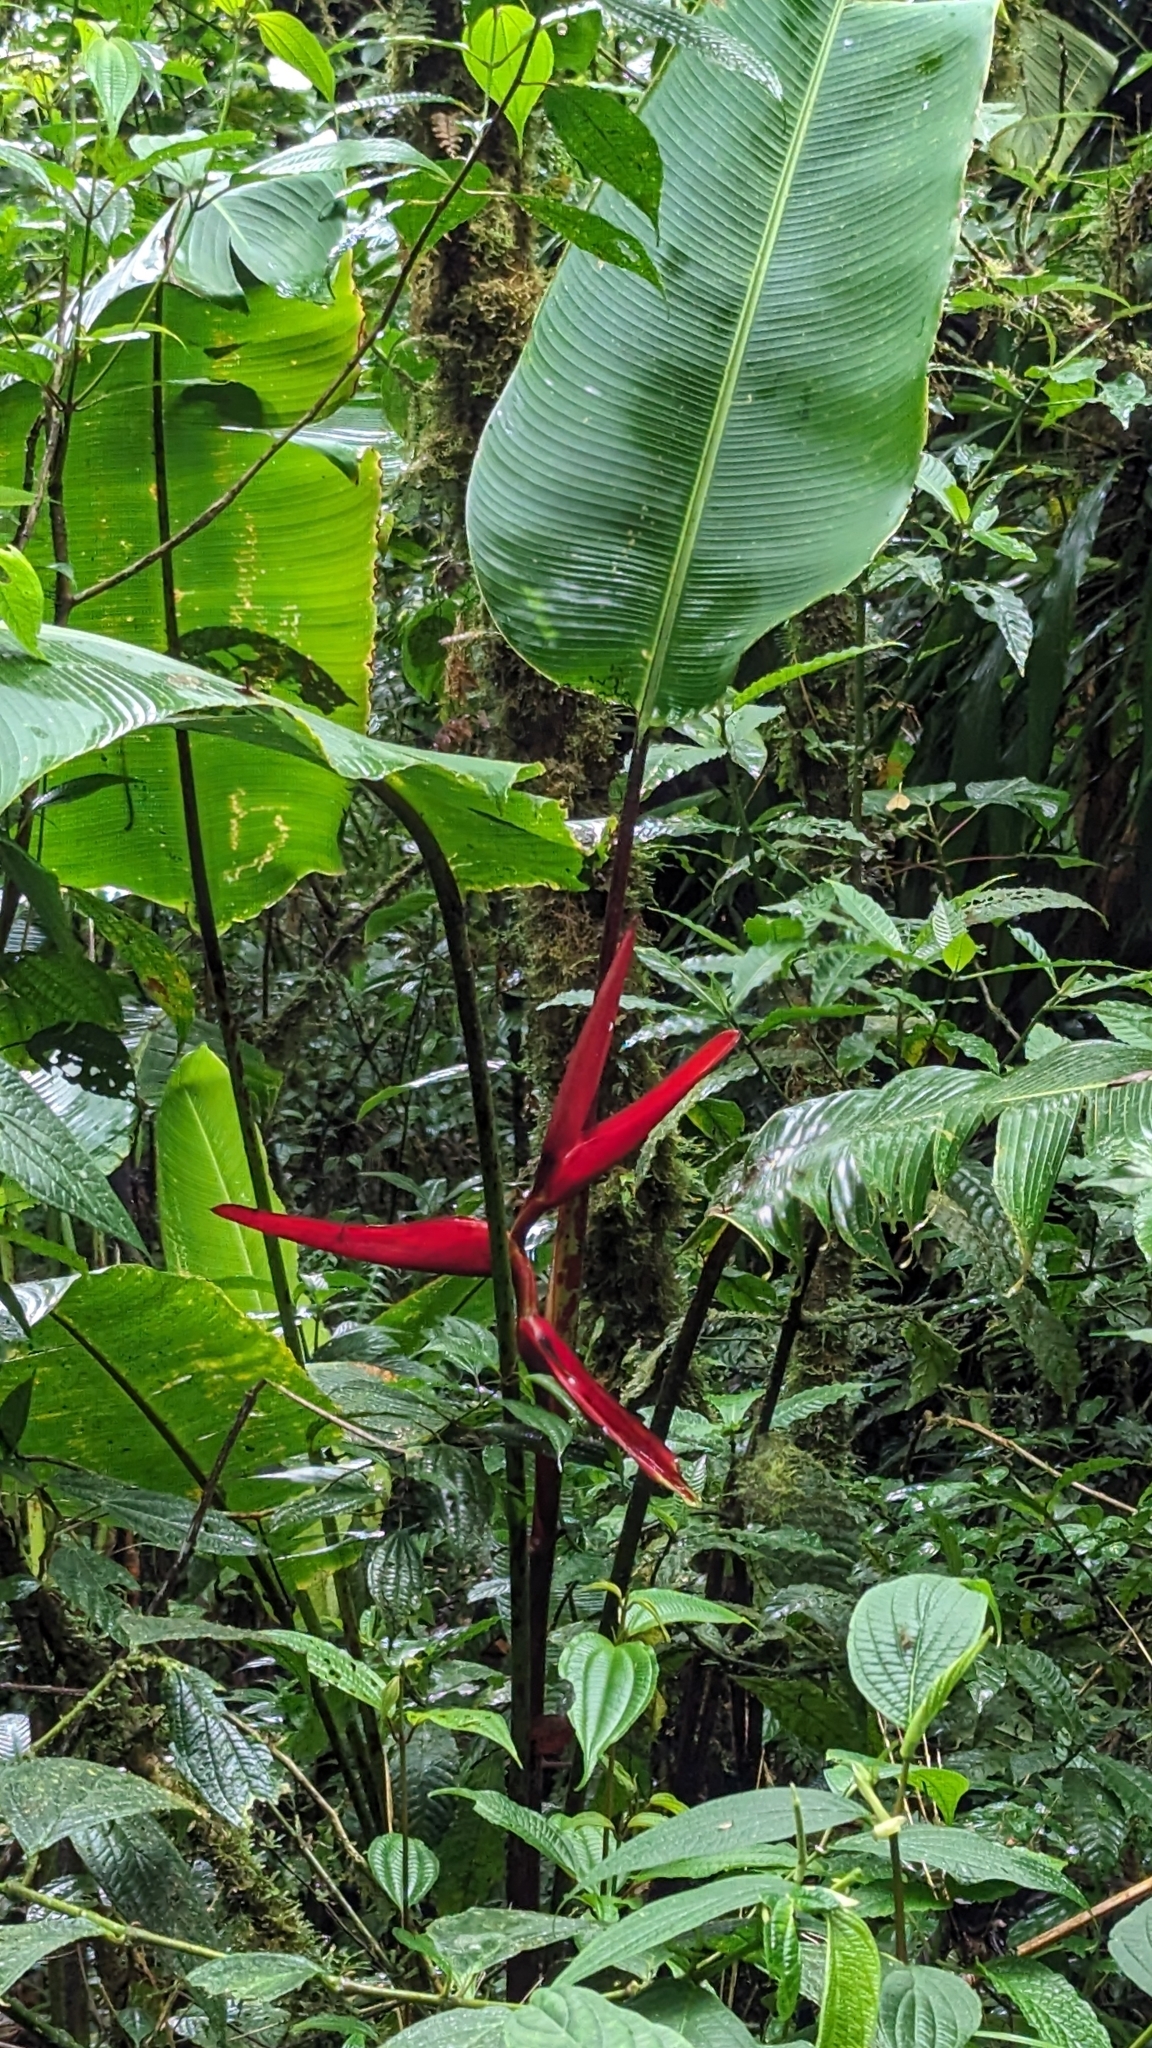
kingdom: Plantae
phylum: Tracheophyta
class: Liliopsida
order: Zingiberales
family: Heliconiaceae
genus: Heliconia
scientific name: Heliconia tortuosa
